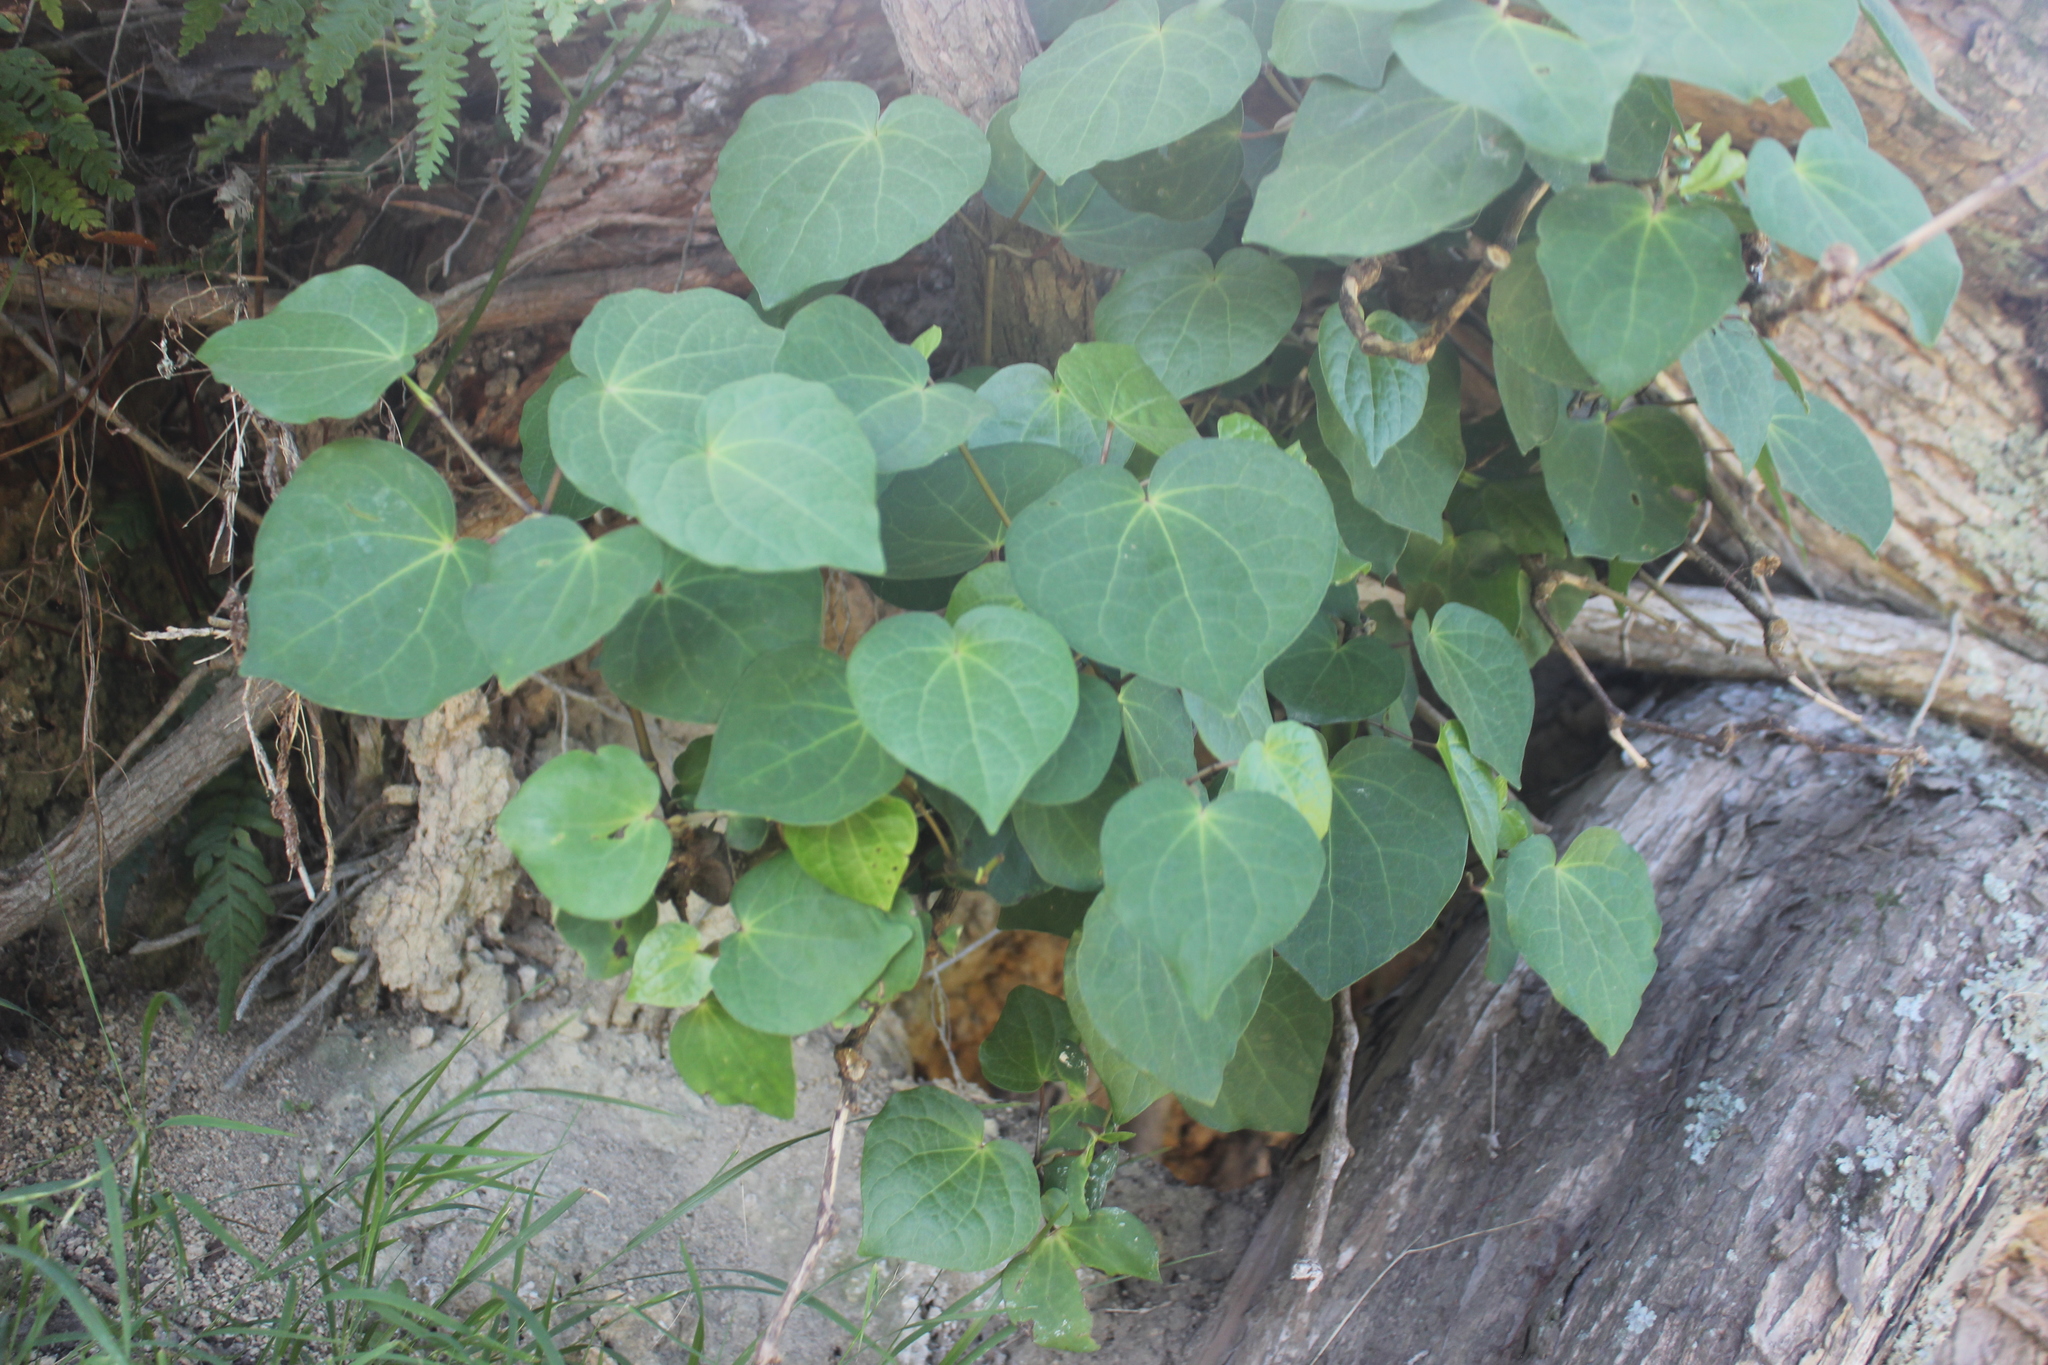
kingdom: Plantae
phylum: Tracheophyta
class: Magnoliopsida
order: Piperales
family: Piperaceae
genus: Macropiper
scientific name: Macropiper excelsum
